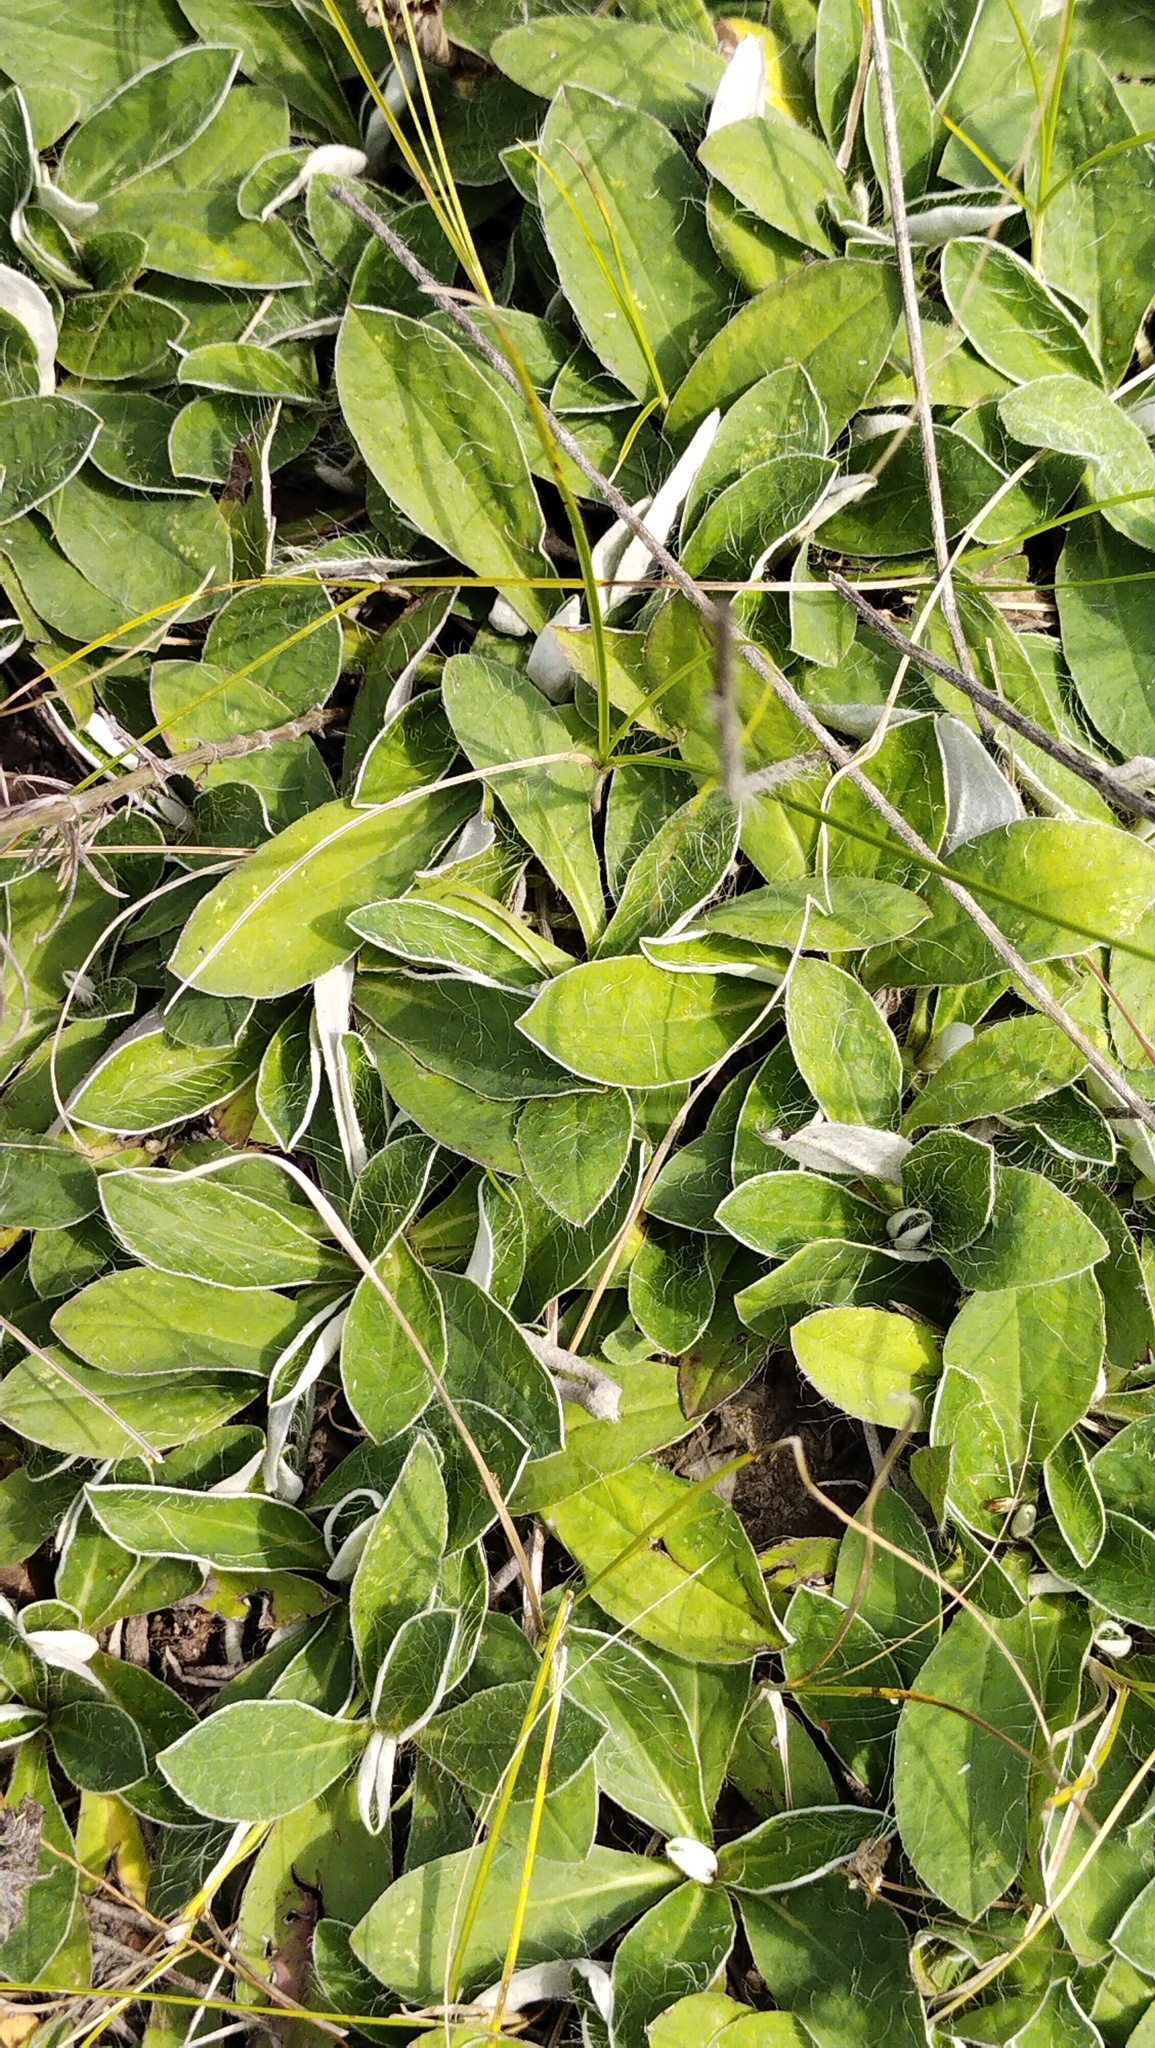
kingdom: Plantae
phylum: Tracheophyta
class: Magnoliopsida
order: Asterales
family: Asteraceae
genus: Pilosella
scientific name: Pilosella officinarum
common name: Mouse-ear hawkweed
